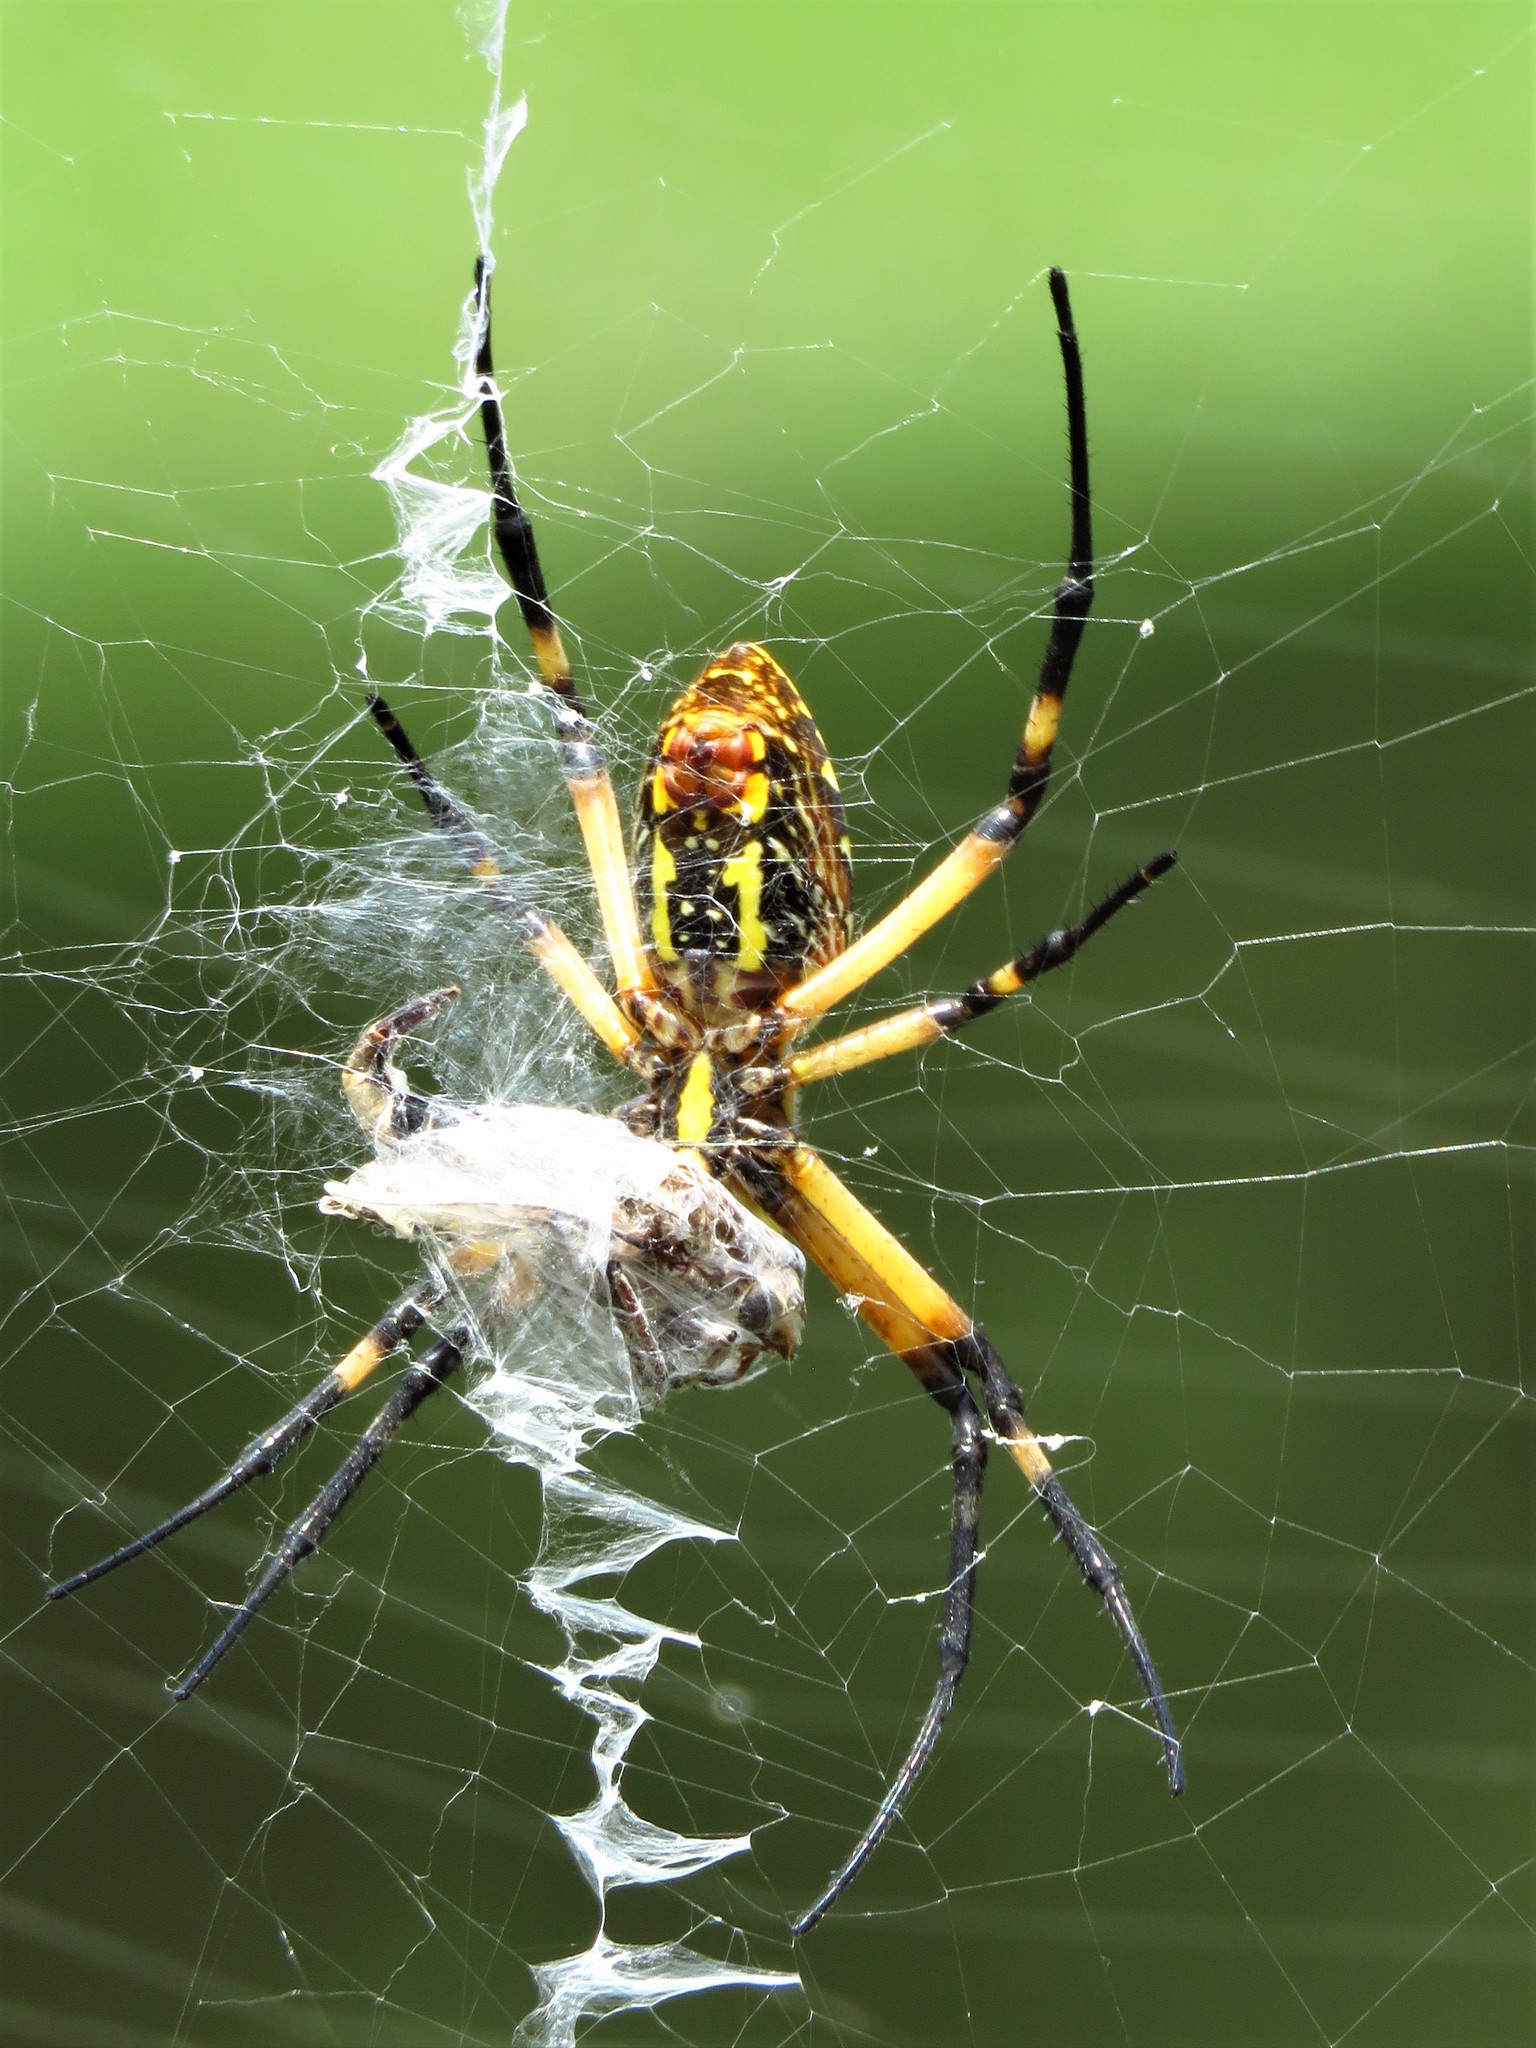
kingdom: Animalia
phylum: Arthropoda
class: Arachnida
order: Araneae
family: Araneidae
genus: Argiope
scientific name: Argiope aurantia
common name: Orb weavers
